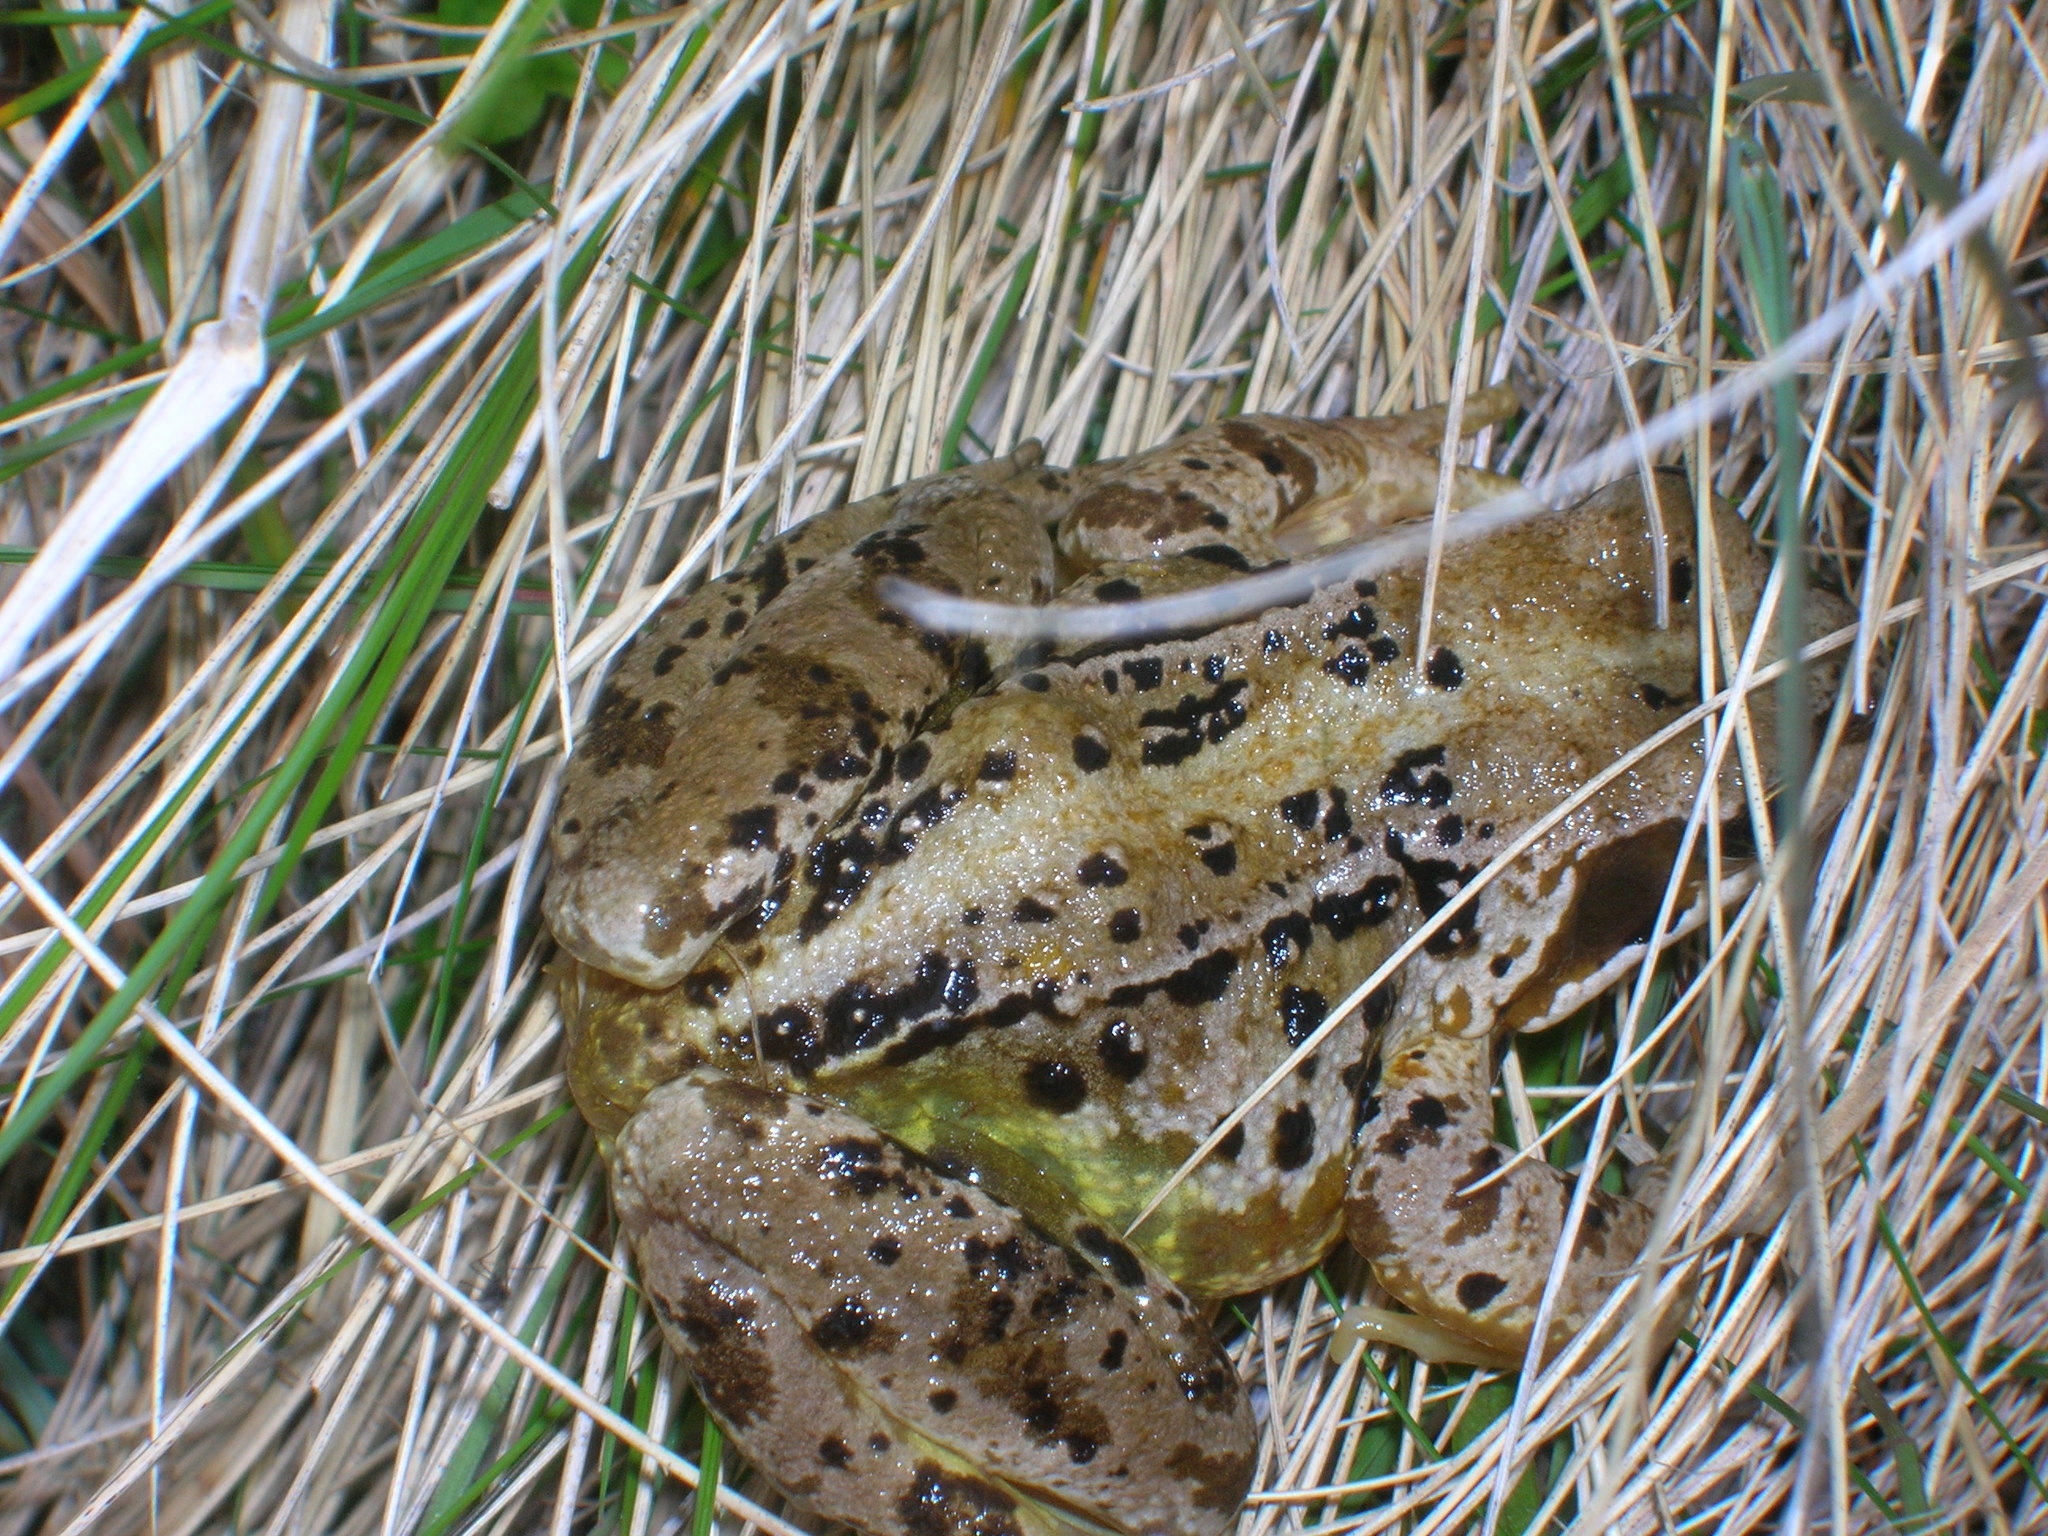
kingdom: Animalia
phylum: Chordata
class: Amphibia
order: Anura
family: Ranidae
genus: Rana
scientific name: Rana temporaria
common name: Common frog
